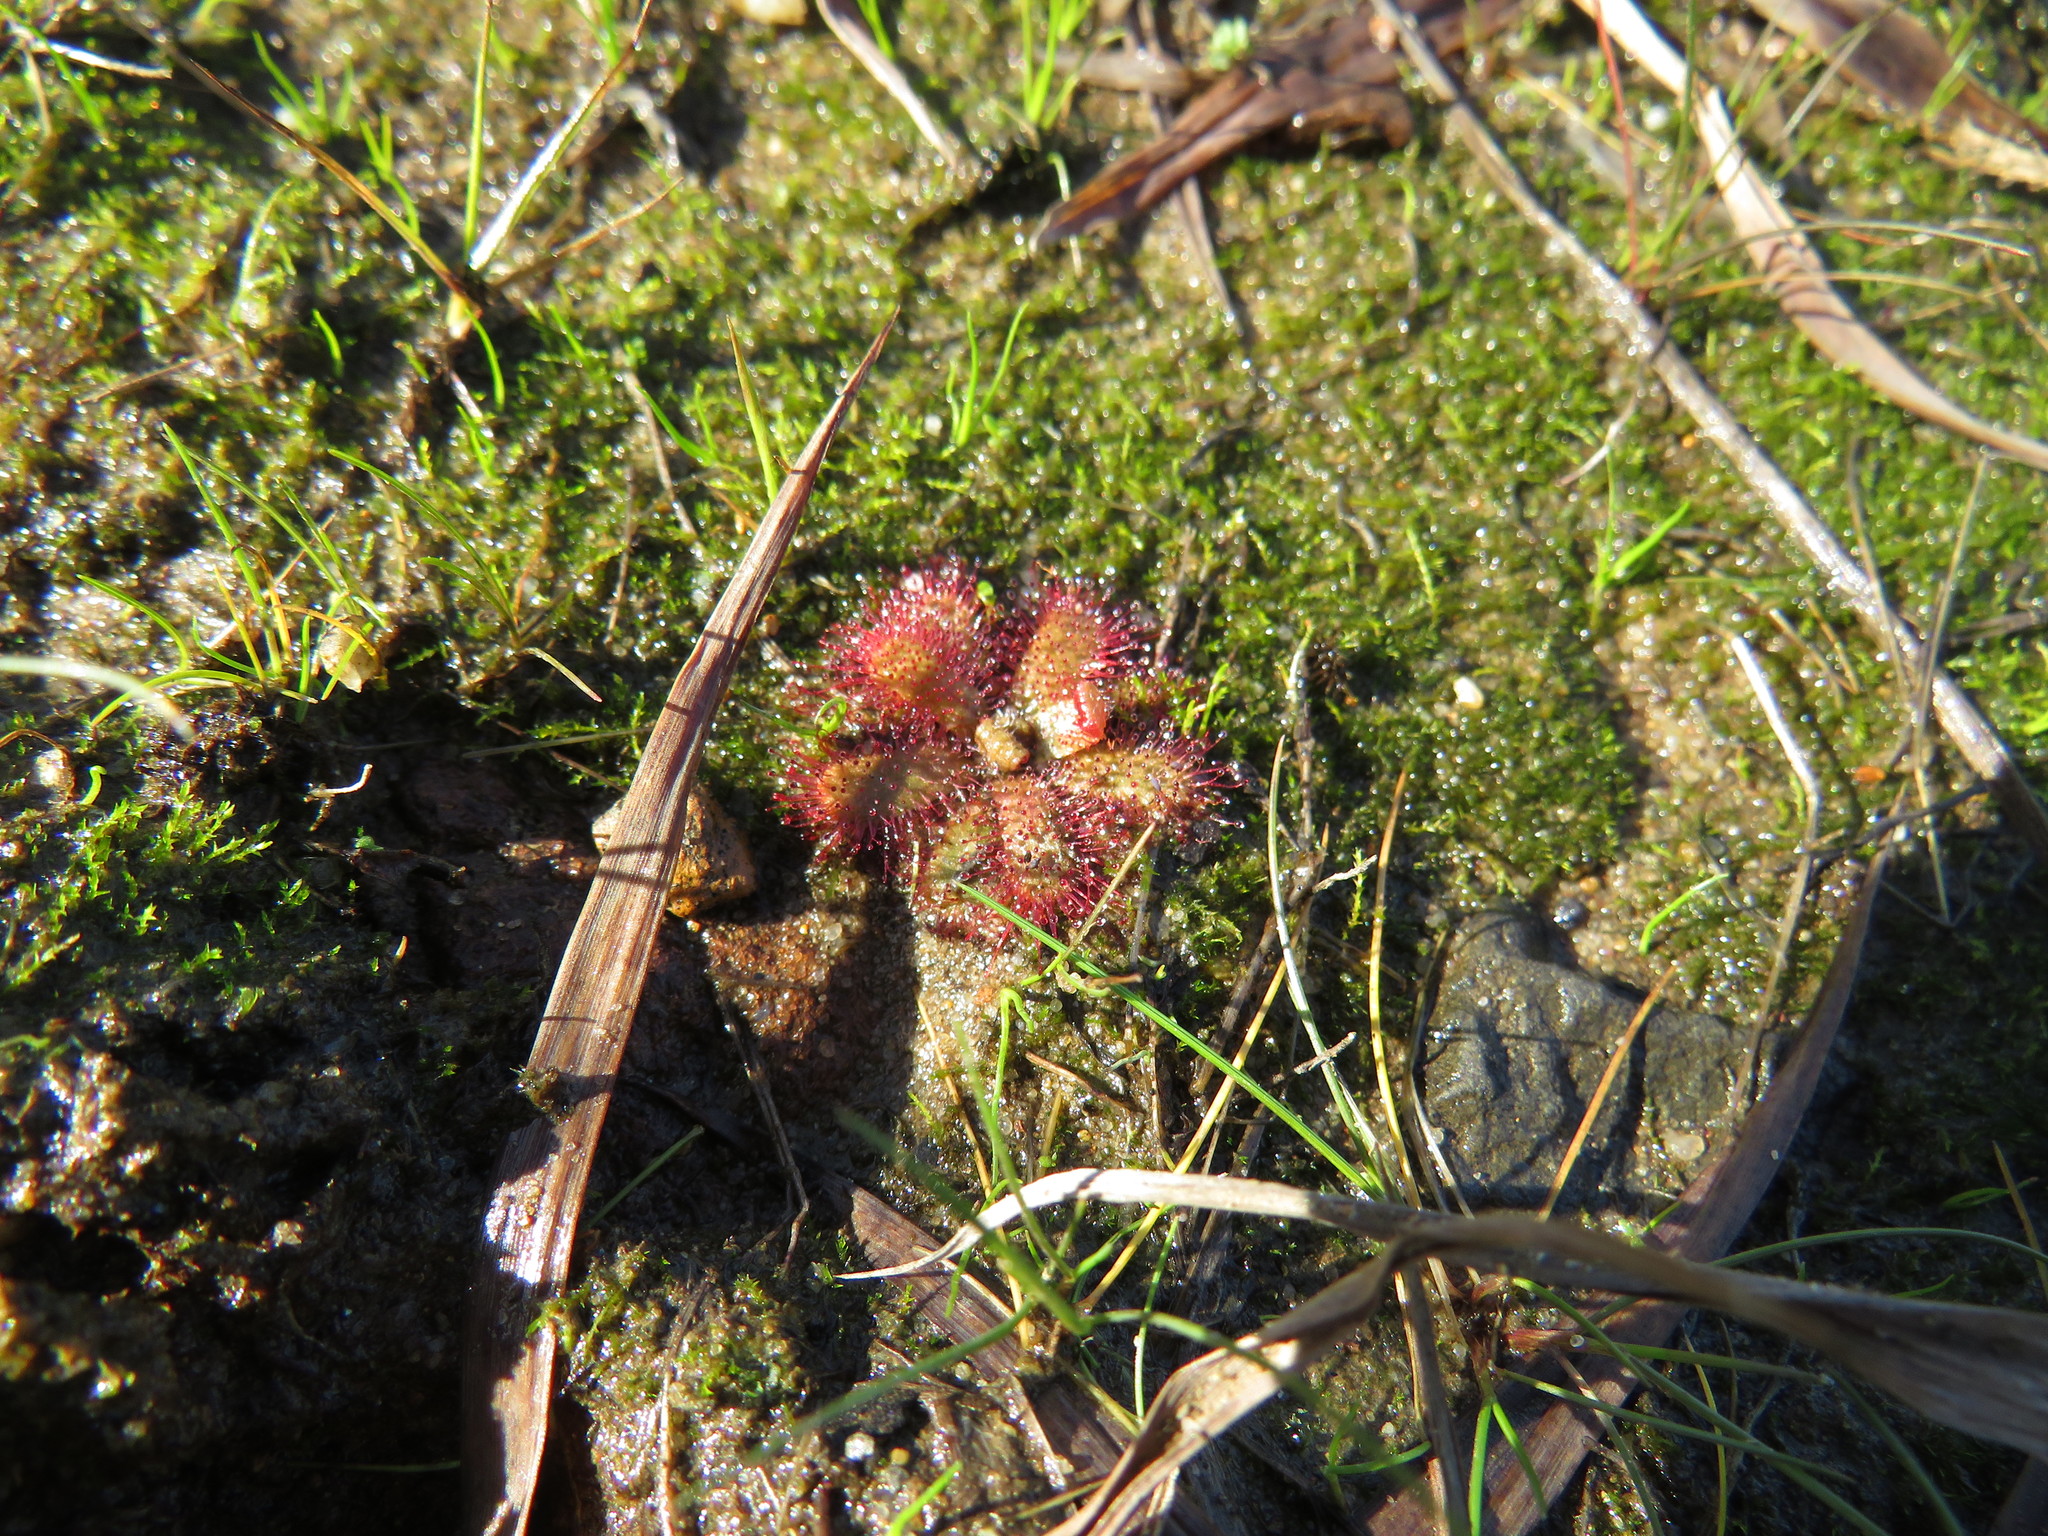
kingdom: Plantae
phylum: Tracheophyta
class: Magnoliopsida
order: Caryophyllales
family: Droseraceae
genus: Drosera
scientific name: Drosera trinervia
